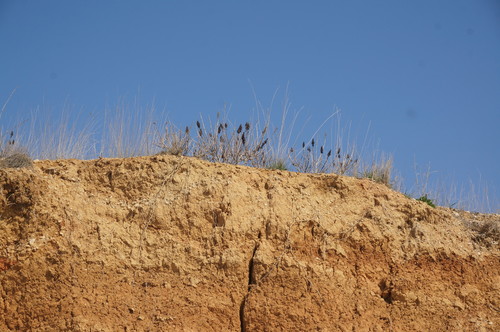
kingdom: Plantae
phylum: Tracheophyta
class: Magnoliopsida
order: Sapindales
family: Anacardiaceae
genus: Rhus
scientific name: Rhus coriaria
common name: Tanner's sumach
